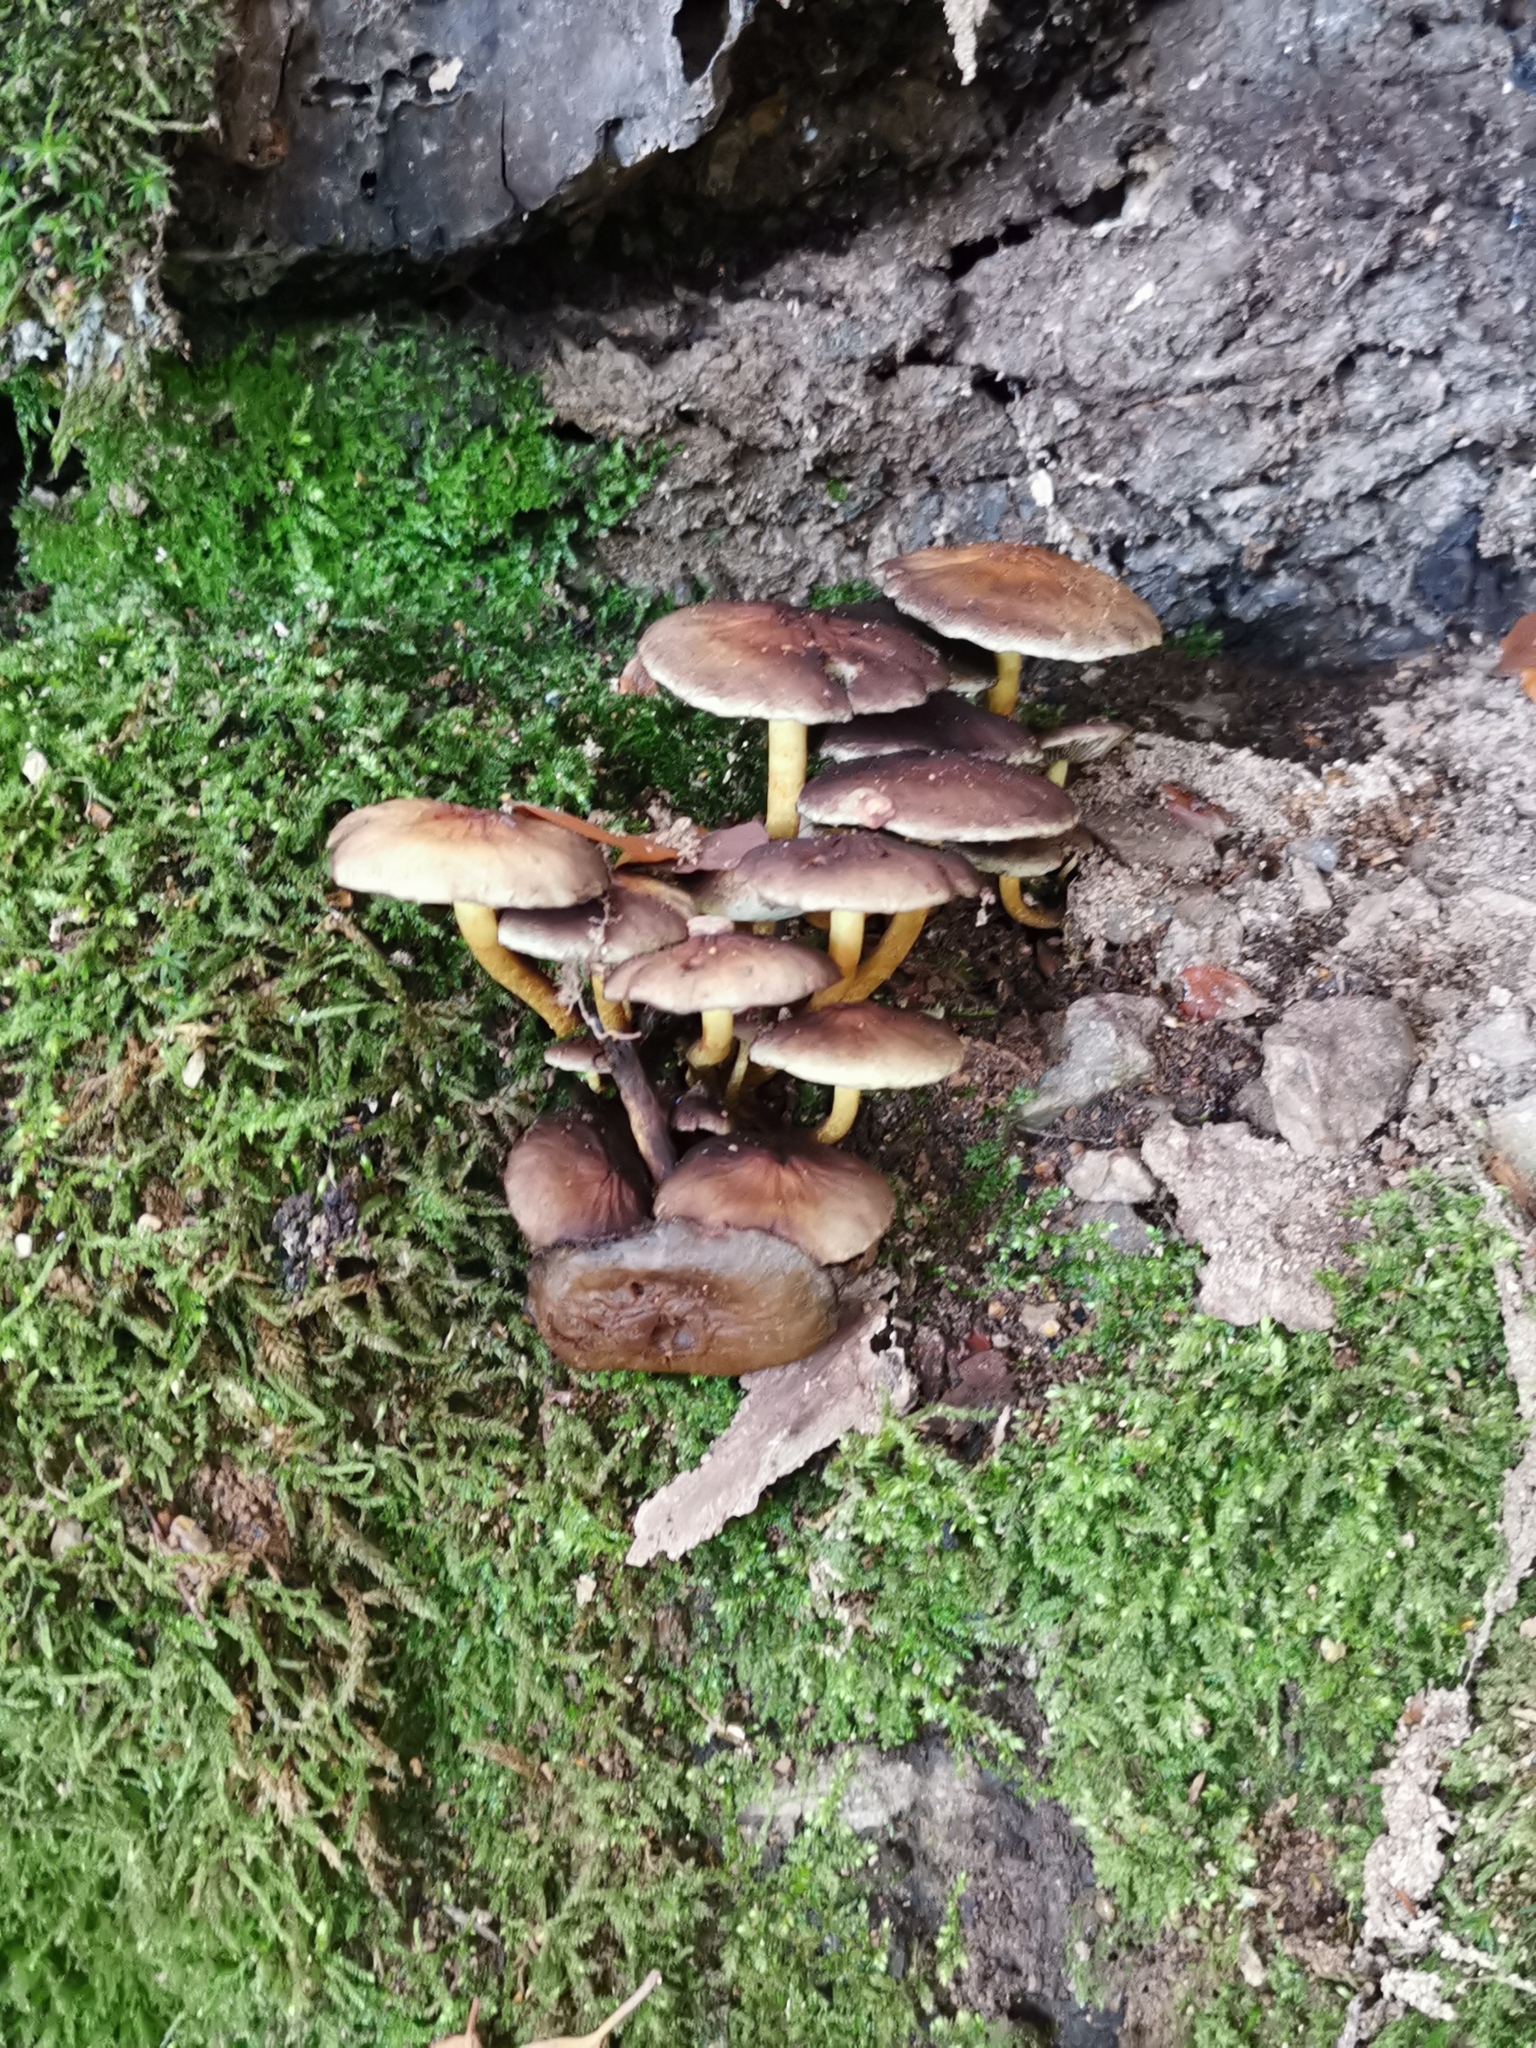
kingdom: Fungi
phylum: Basidiomycota
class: Agaricomycetes
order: Agaricales
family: Strophariaceae
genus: Hypholoma
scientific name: Hypholoma fasciculare
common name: Sulphur tuft
